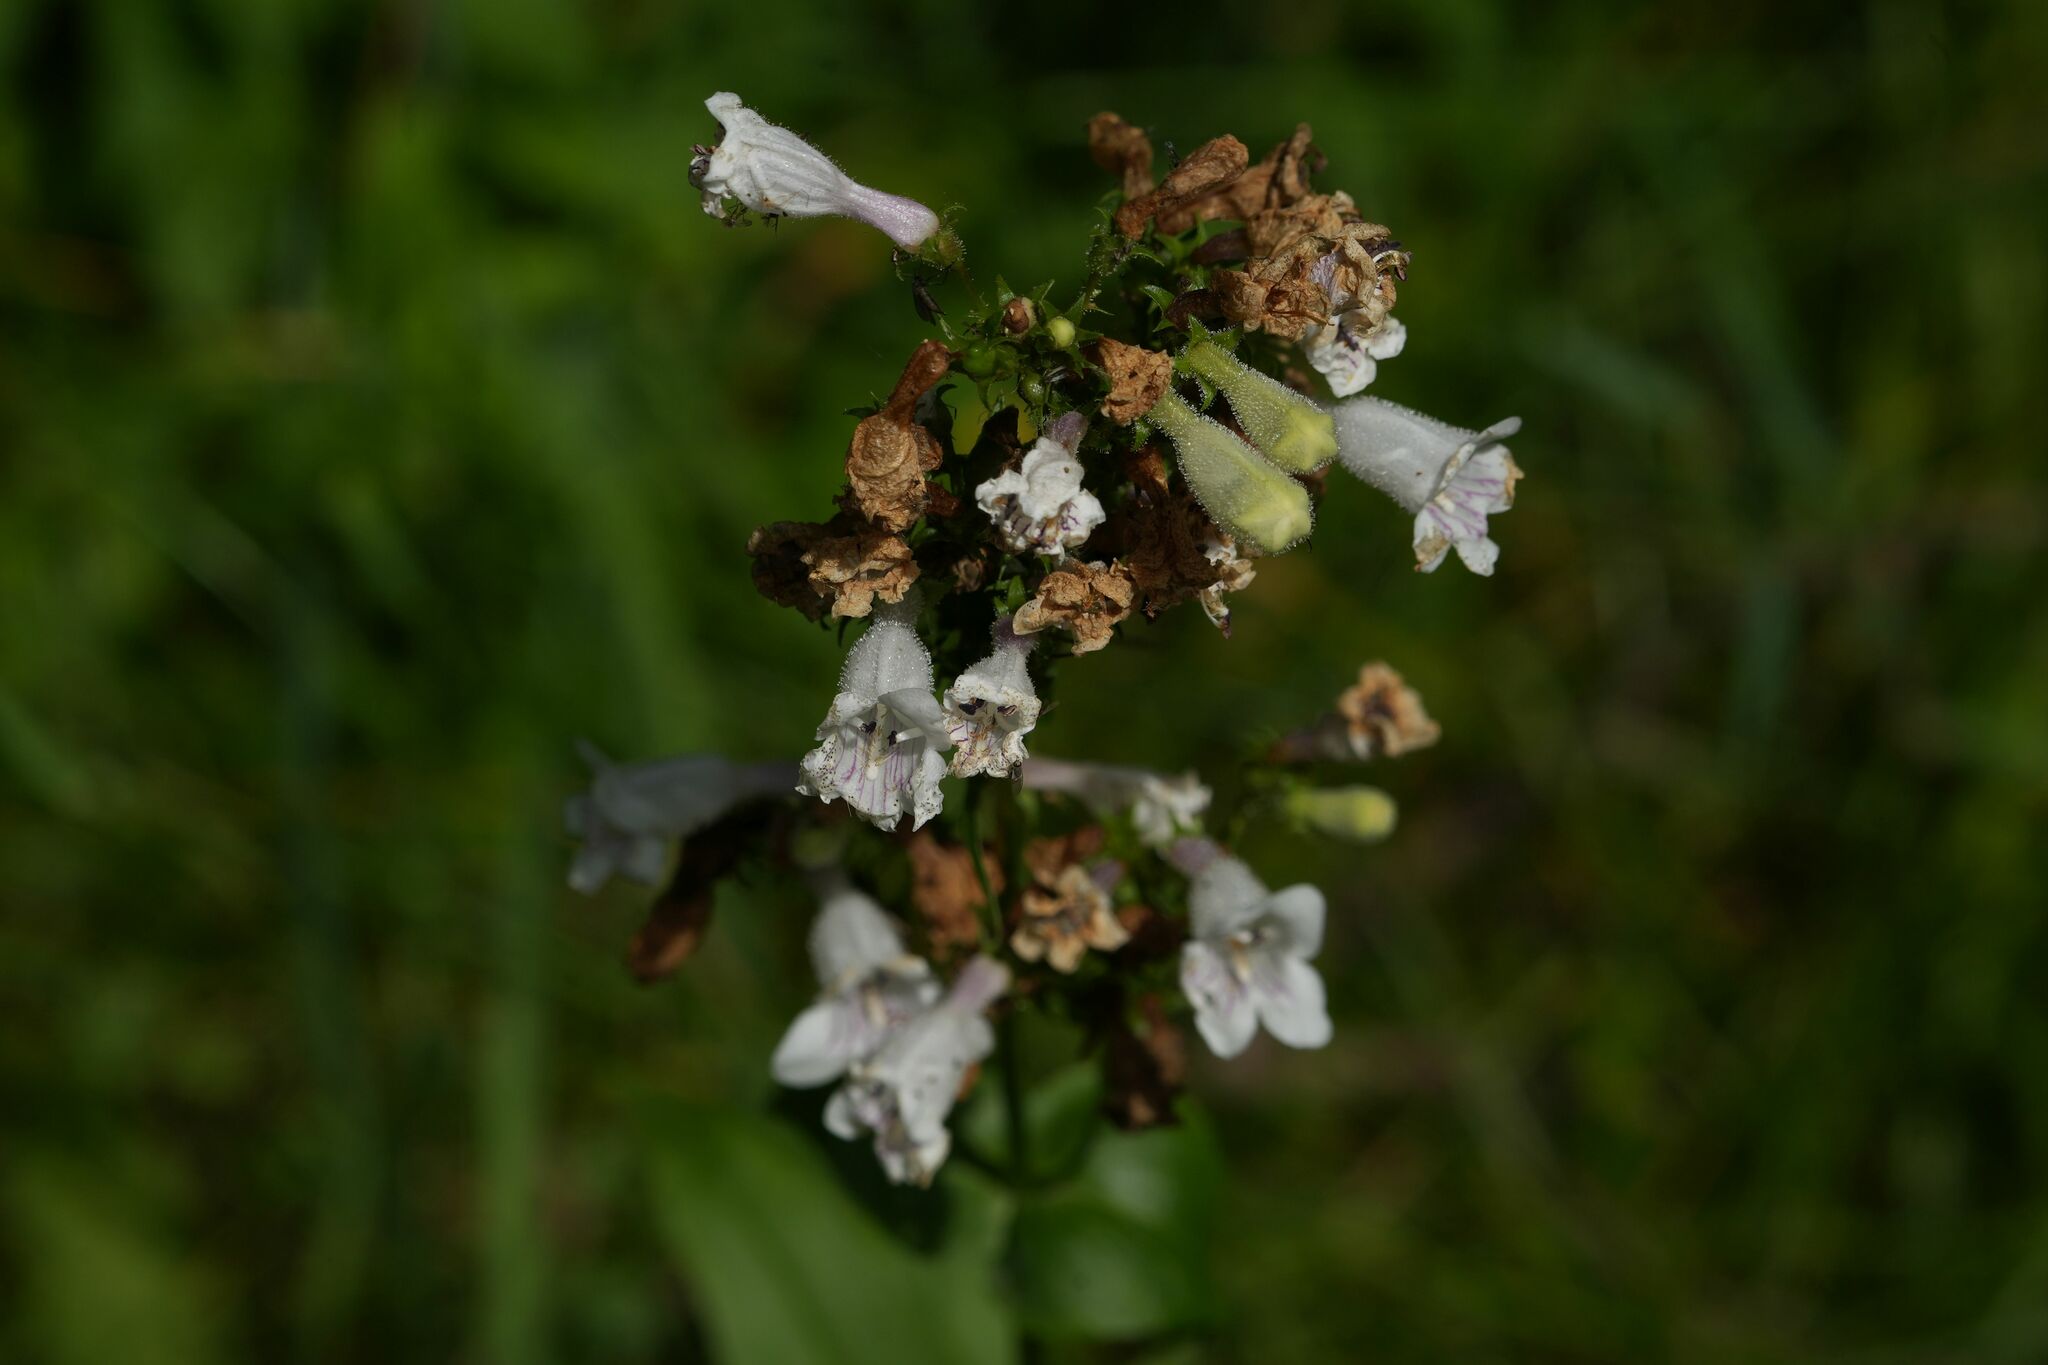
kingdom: Plantae
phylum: Tracheophyta
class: Magnoliopsida
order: Lamiales
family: Plantaginaceae
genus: Penstemon
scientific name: Penstemon digitalis
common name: Foxglove beardtongue
